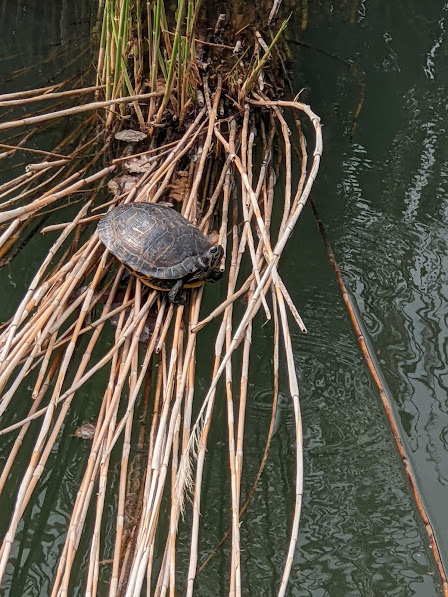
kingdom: Animalia
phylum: Chordata
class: Testudines
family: Emydidae
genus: Trachemys
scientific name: Trachemys scripta
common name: Slider
